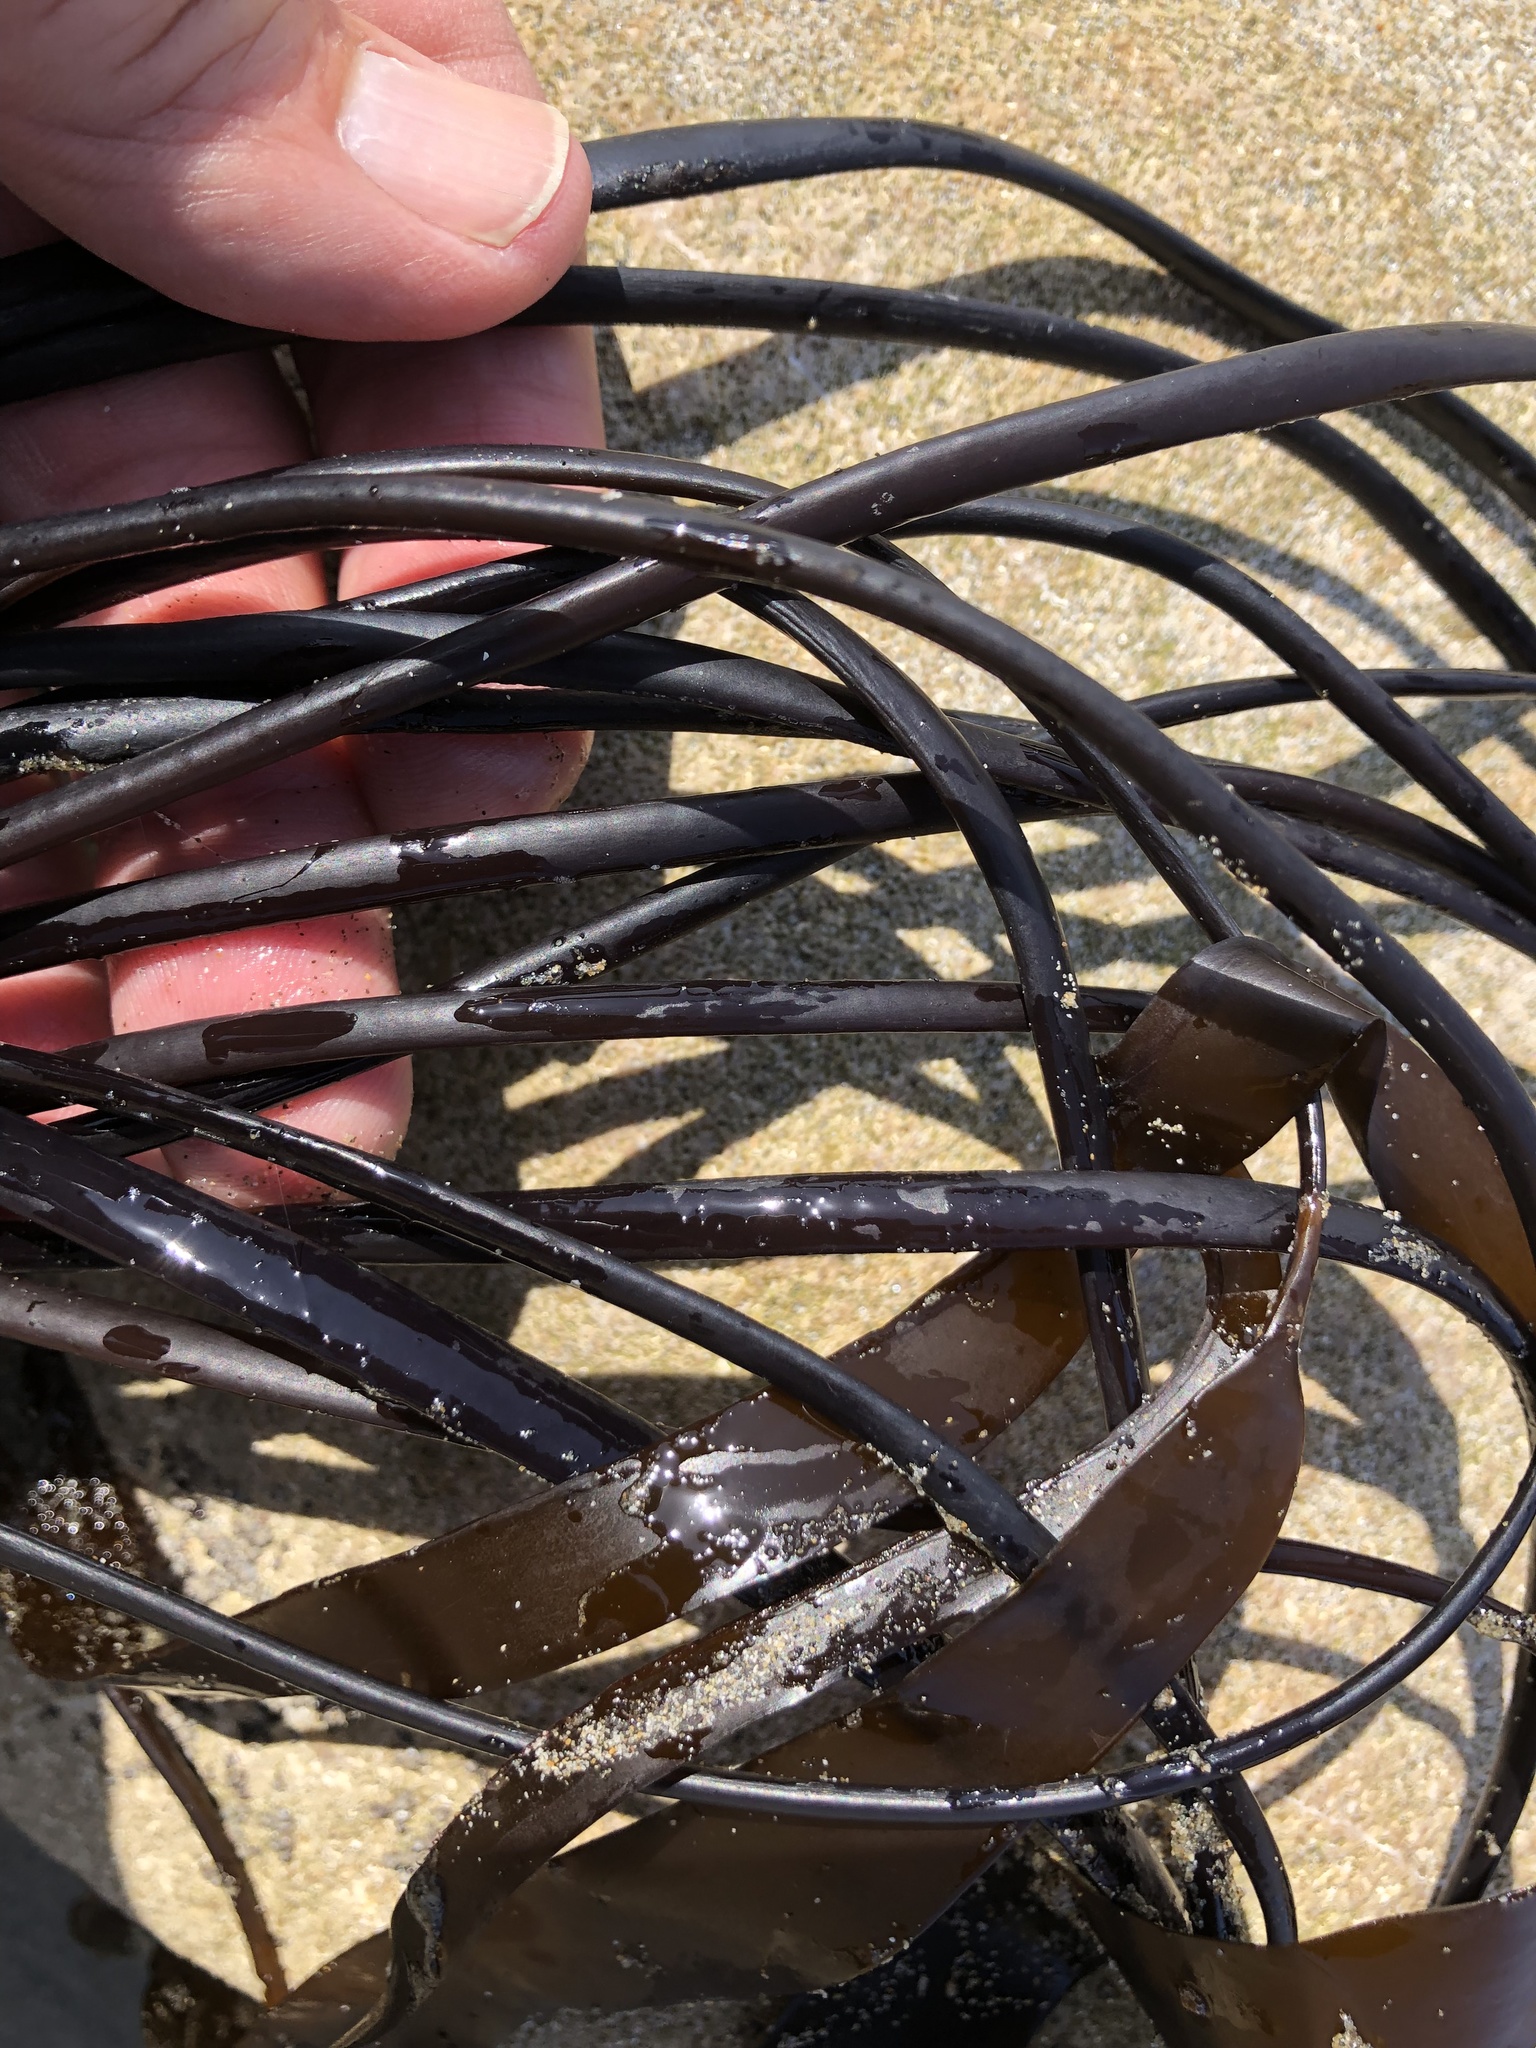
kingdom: Chromista
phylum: Ochrophyta
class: Phaeophyceae
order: Laminariales
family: Laminariaceae
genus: Laminaria
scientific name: Laminaria sinclairii
